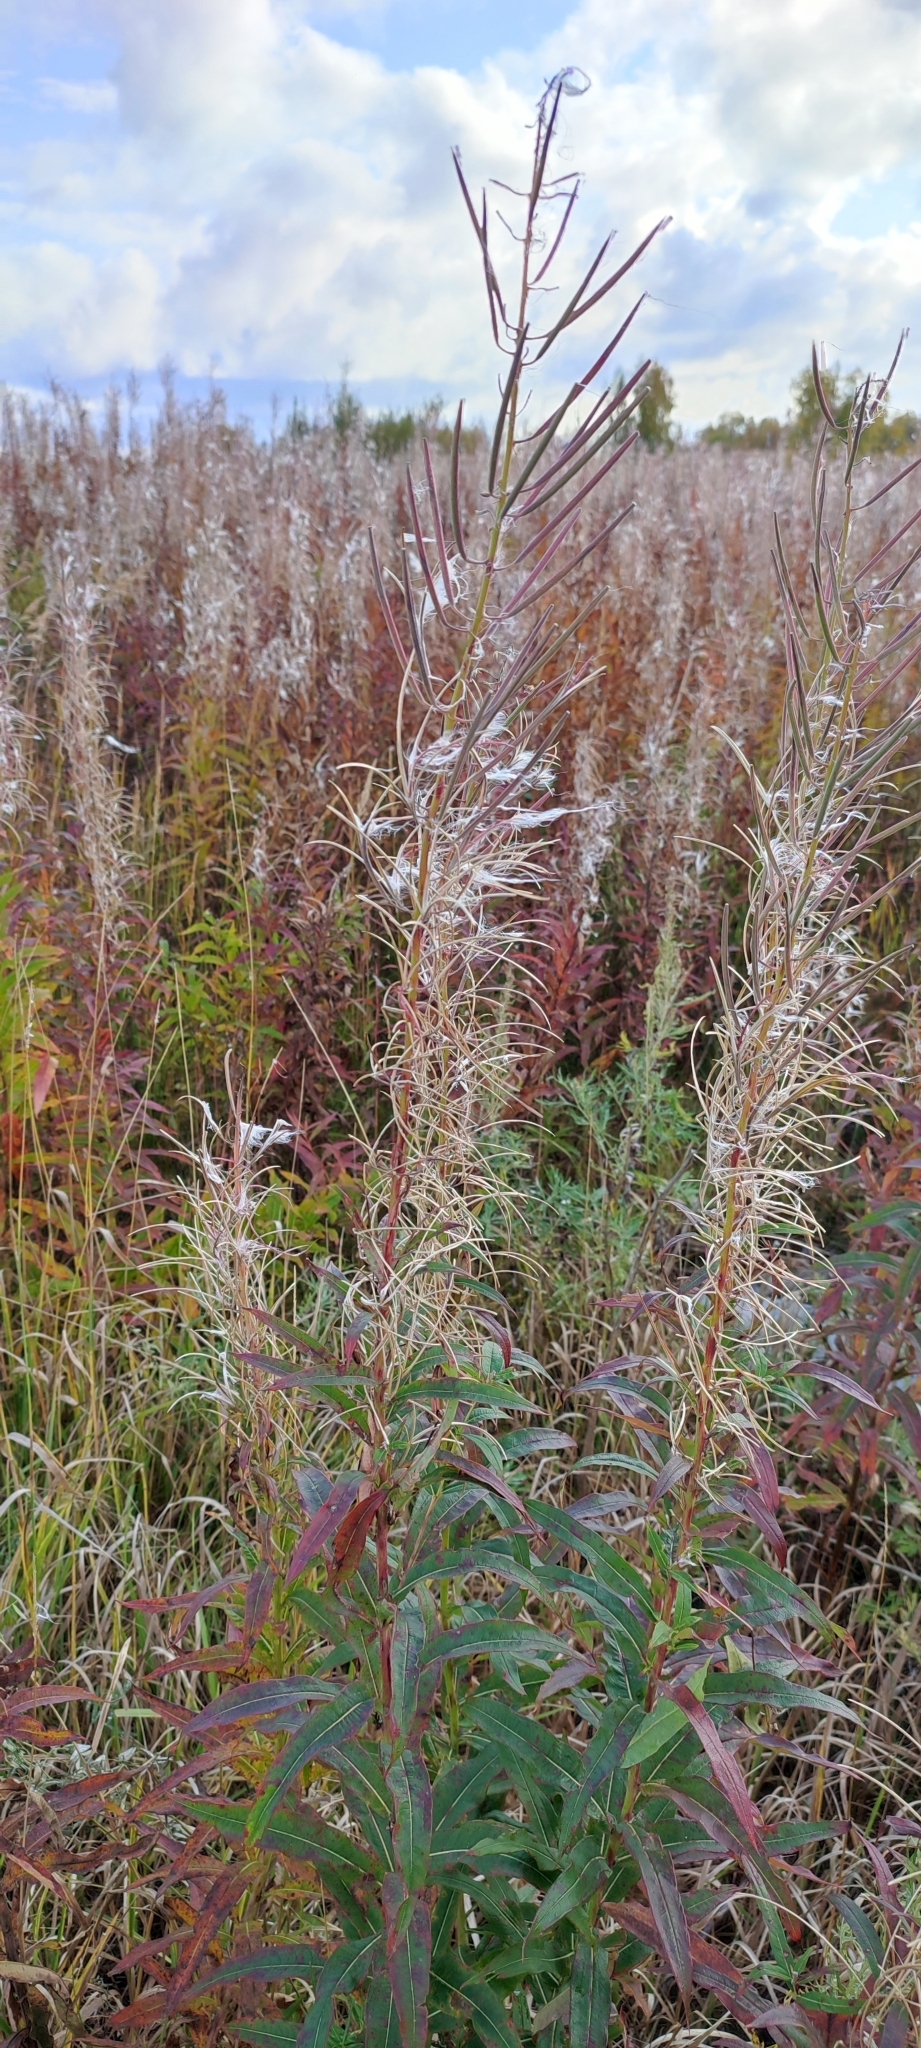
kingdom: Plantae
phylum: Tracheophyta
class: Magnoliopsida
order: Myrtales
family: Onagraceae
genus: Chamaenerion
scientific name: Chamaenerion angustifolium
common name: Fireweed
